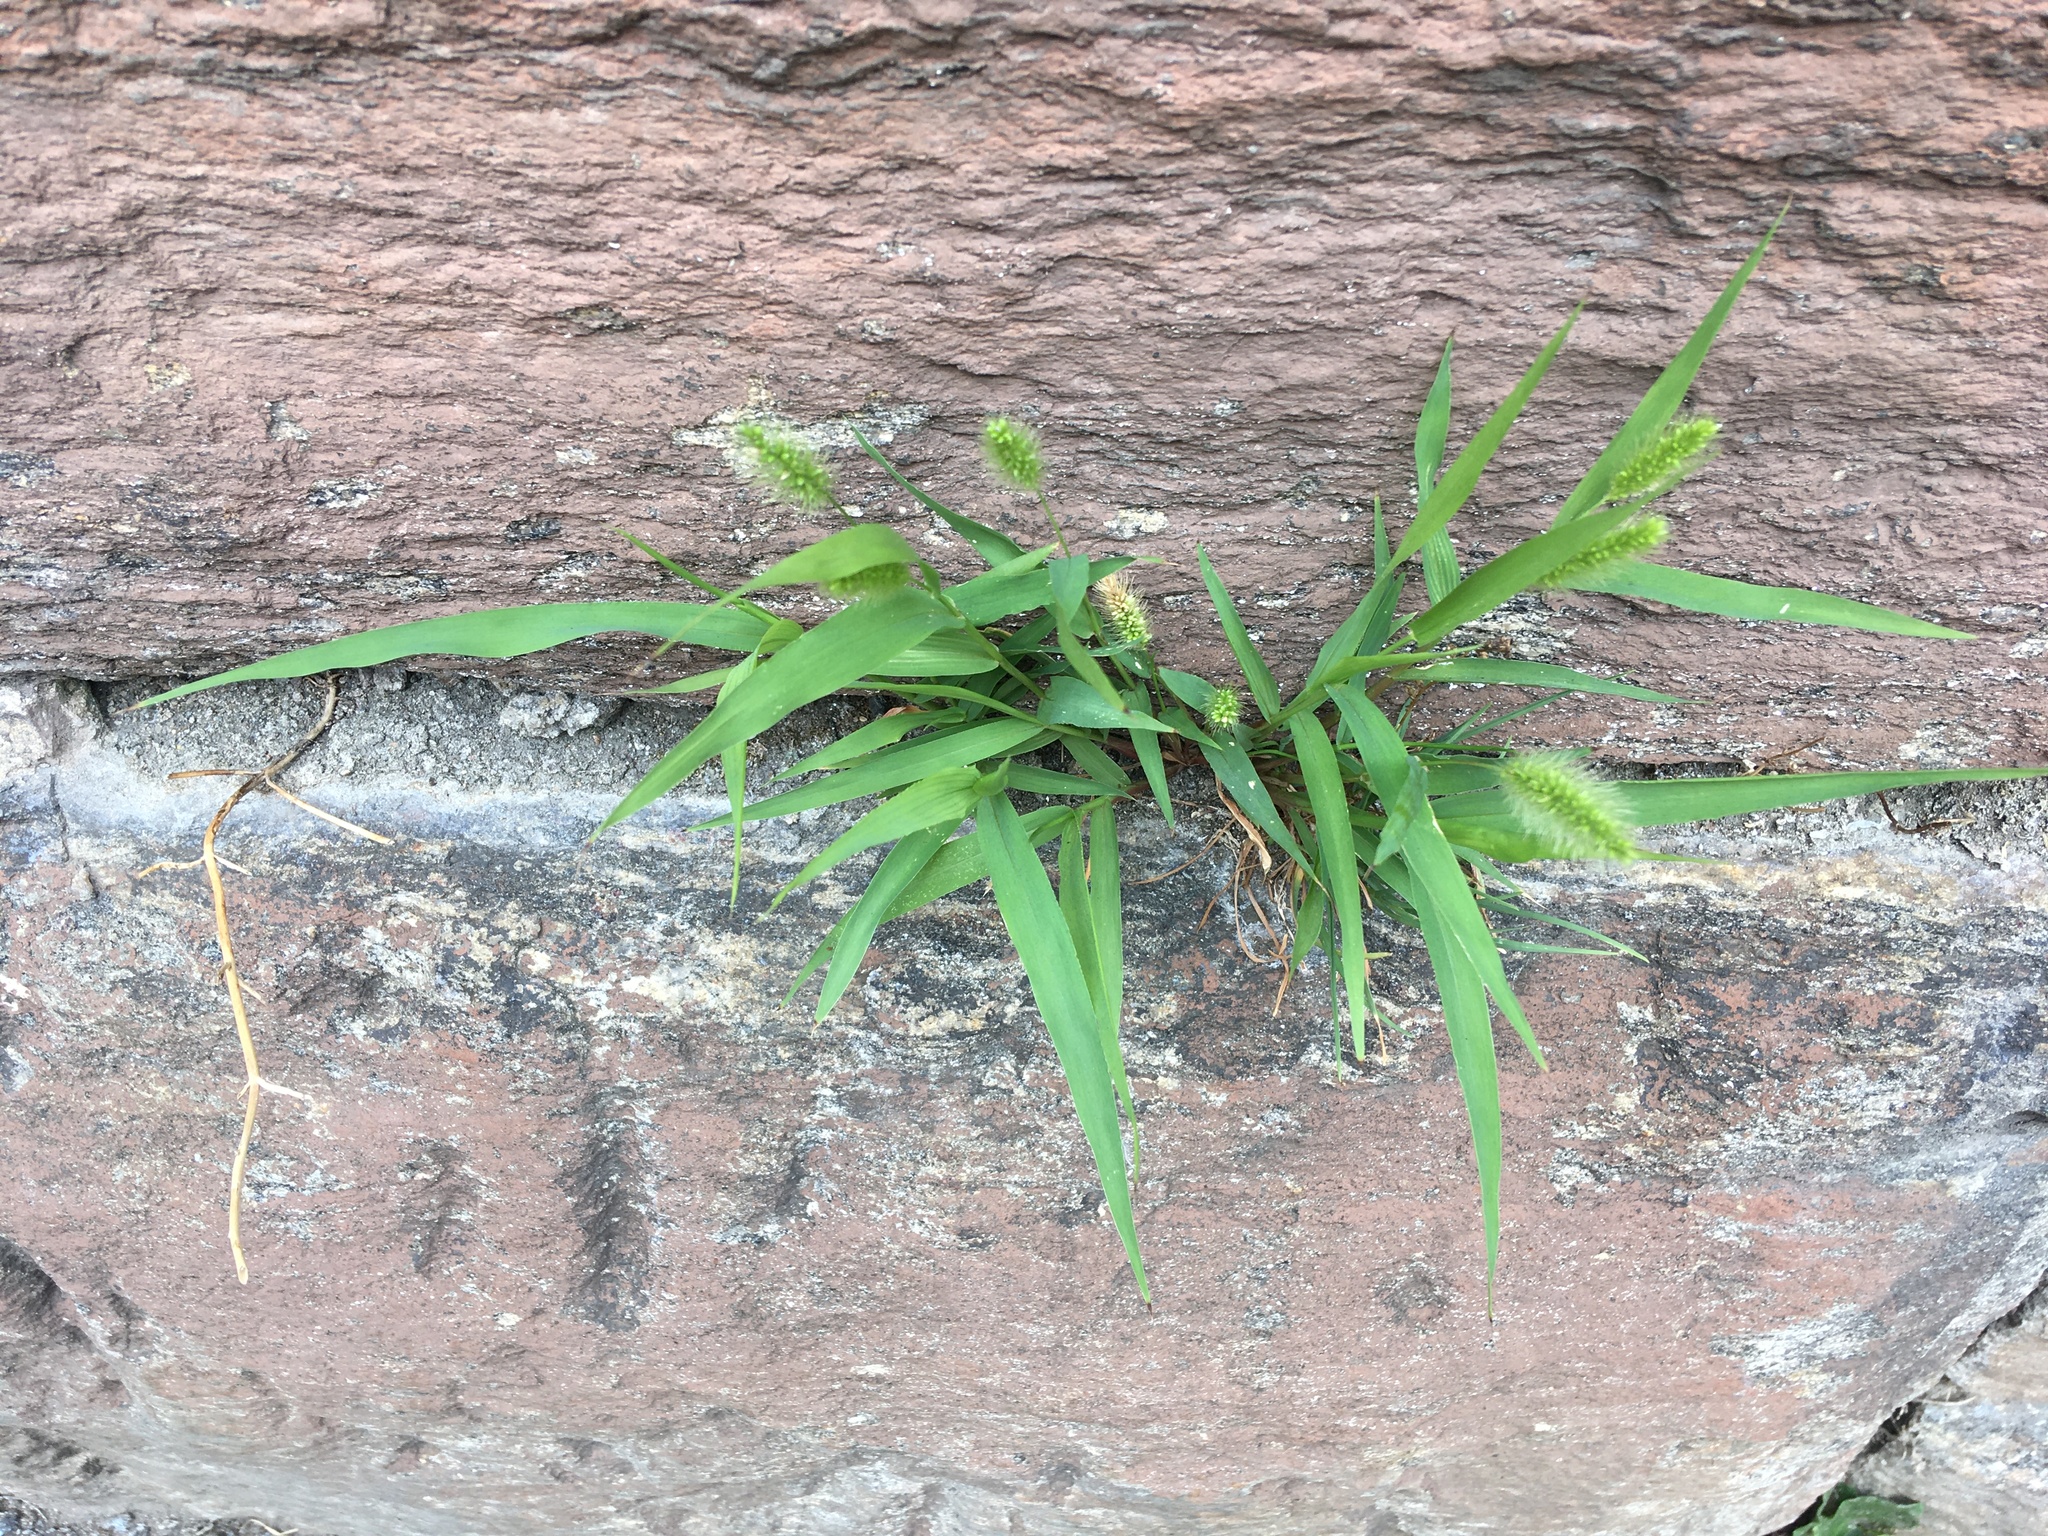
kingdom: Plantae
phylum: Tracheophyta
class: Liliopsida
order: Poales
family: Poaceae
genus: Setaria
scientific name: Setaria viridis
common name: Green bristlegrass
